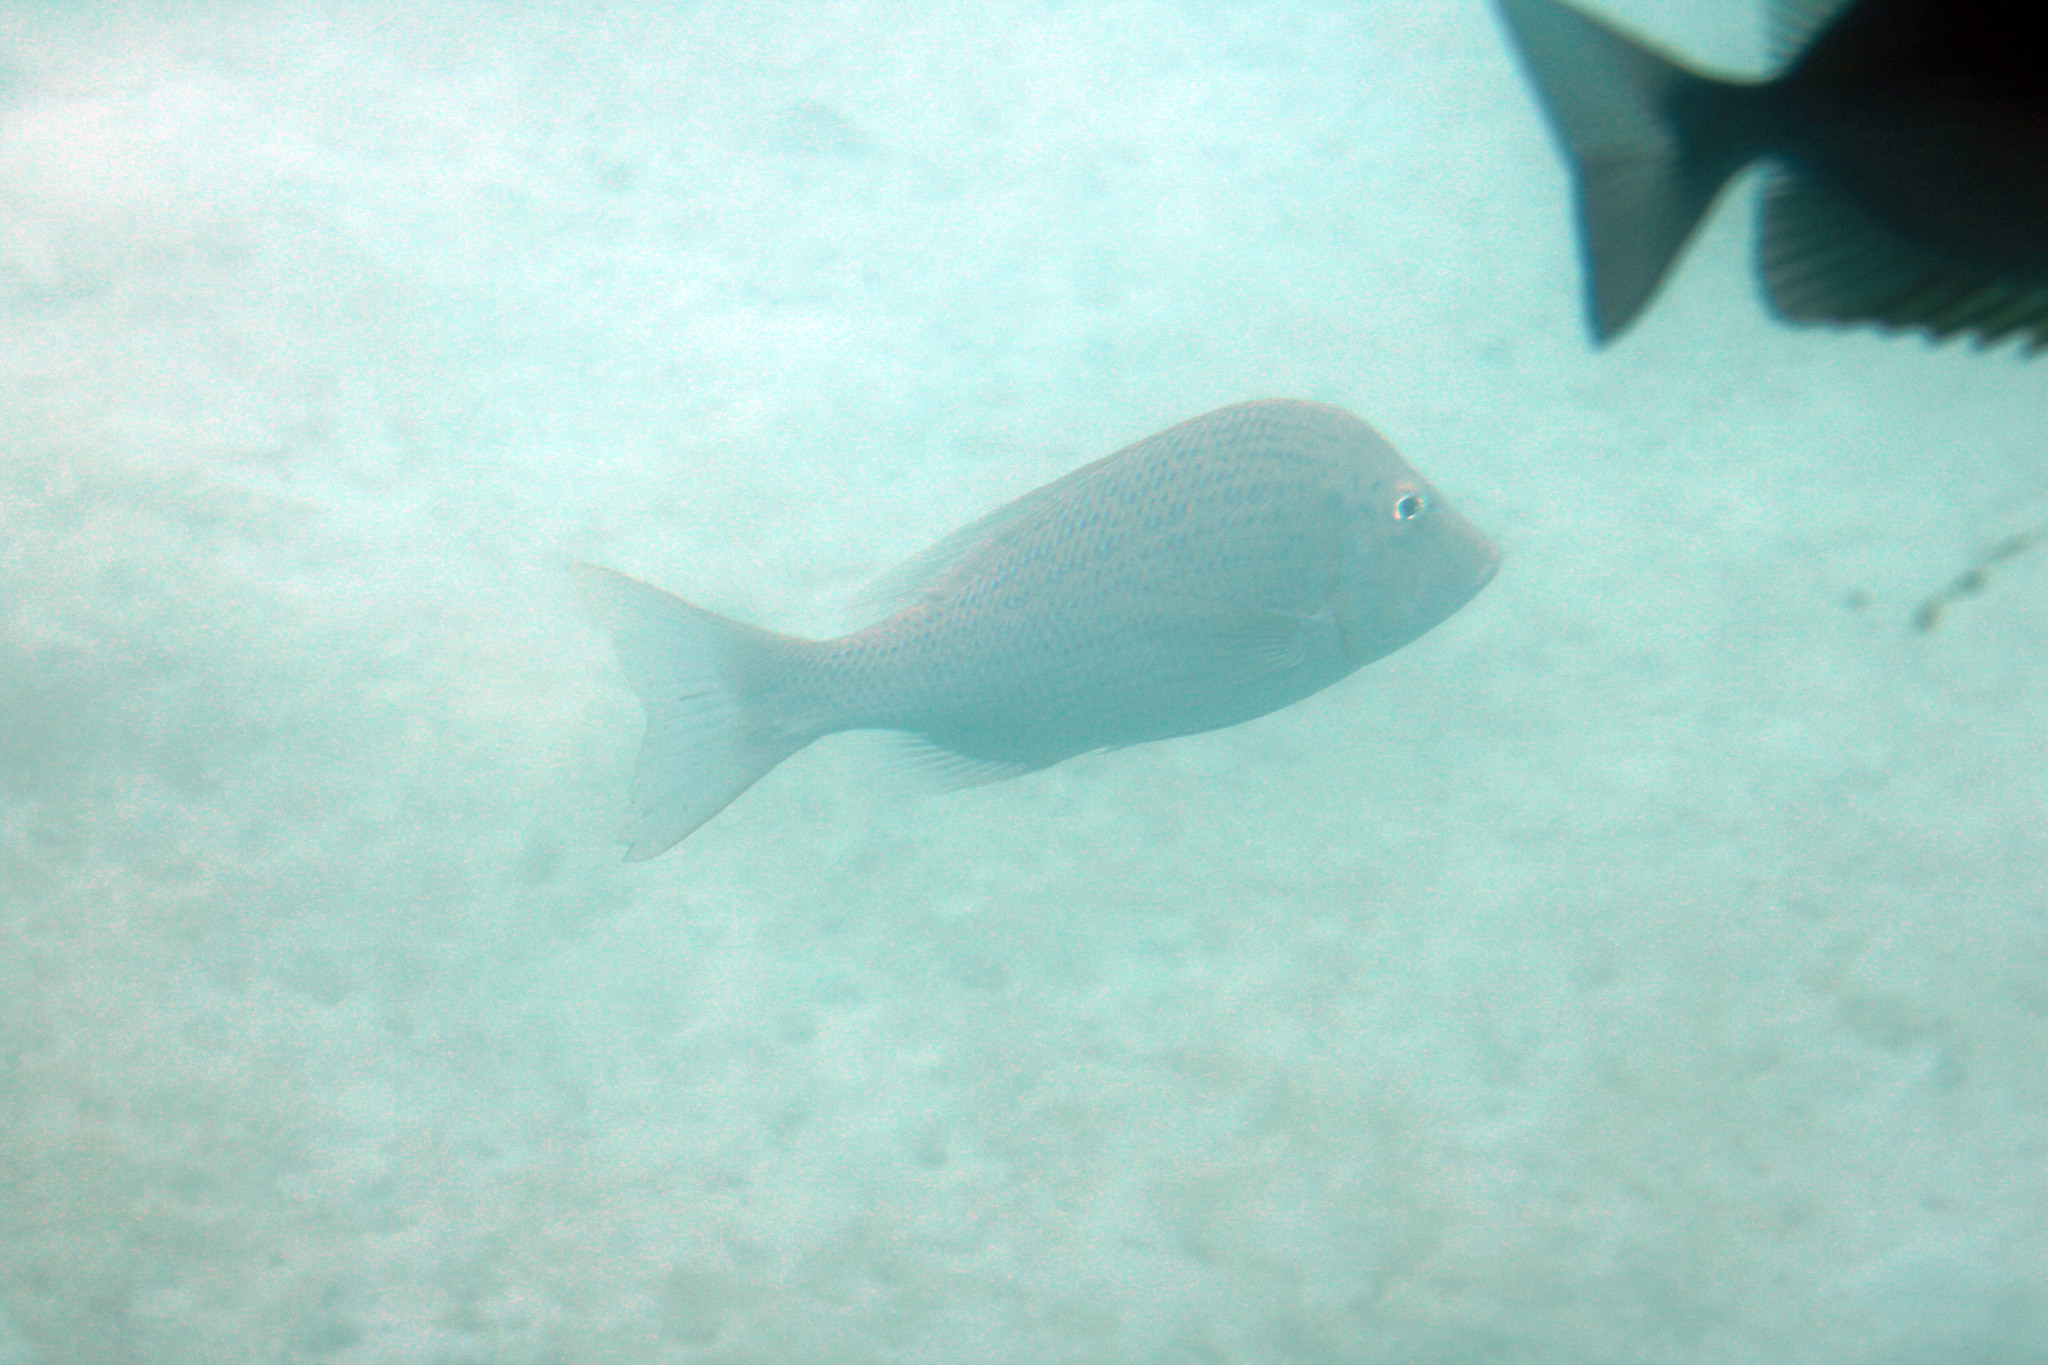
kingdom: Animalia
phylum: Chordata
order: Perciformes
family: Lethrinidae
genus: Lethrinus
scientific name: Lethrinus nebulosus
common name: Spangled emperor
